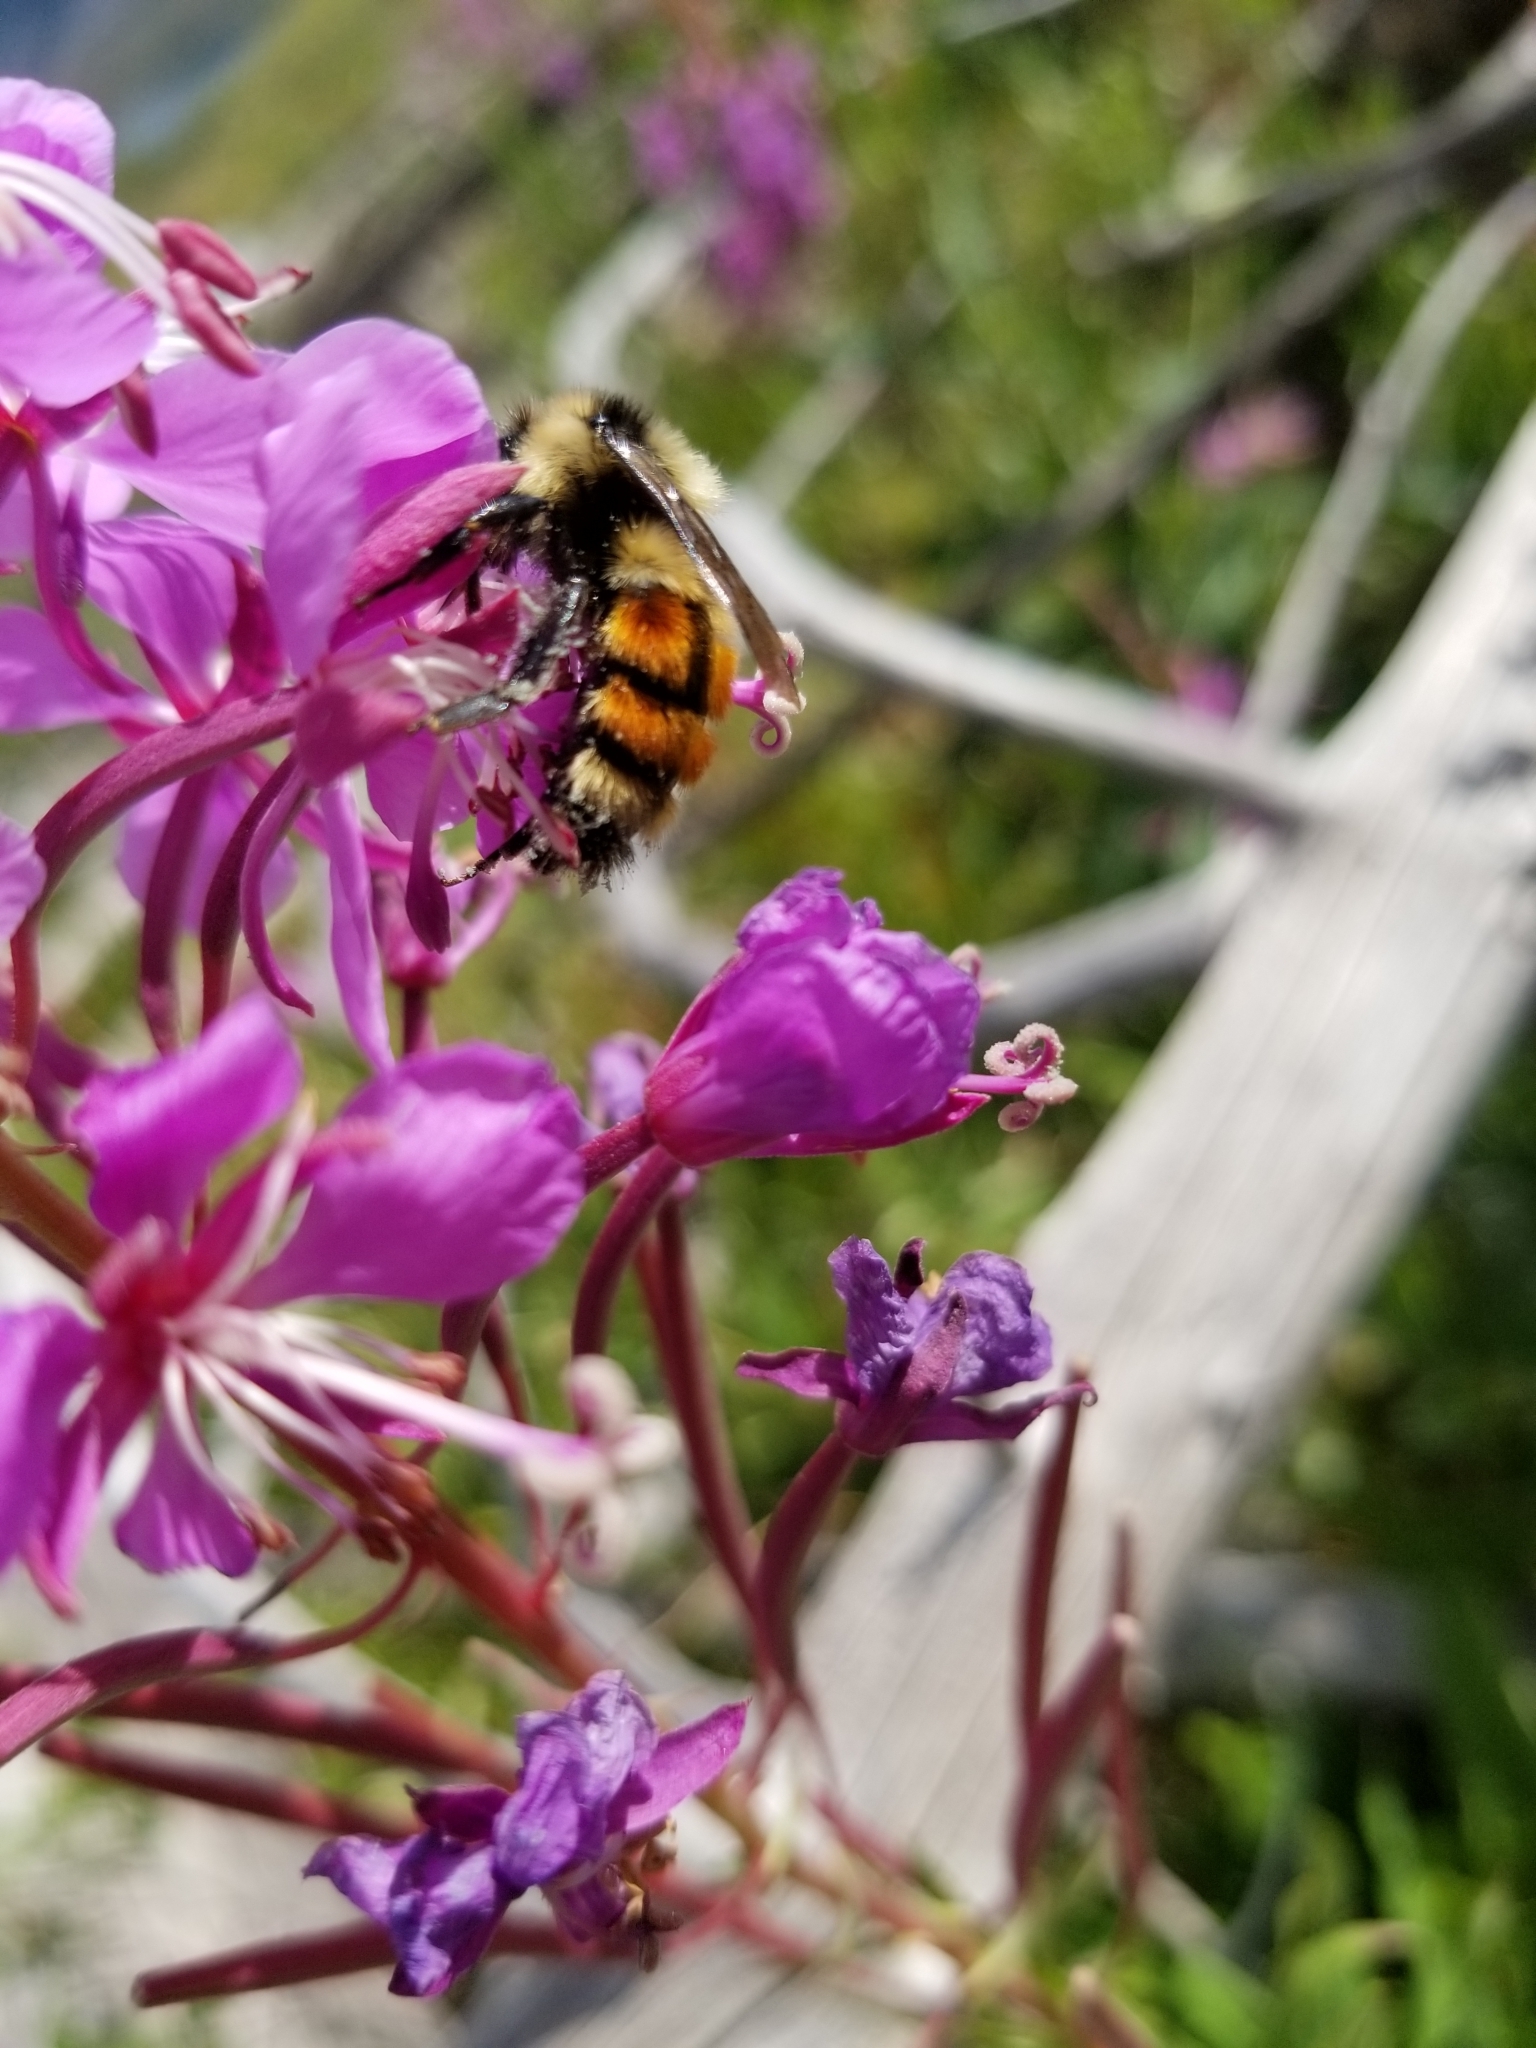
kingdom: Animalia
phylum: Arthropoda
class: Insecta
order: Hymenoptera
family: Apidae
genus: Bombus
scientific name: Bombus
